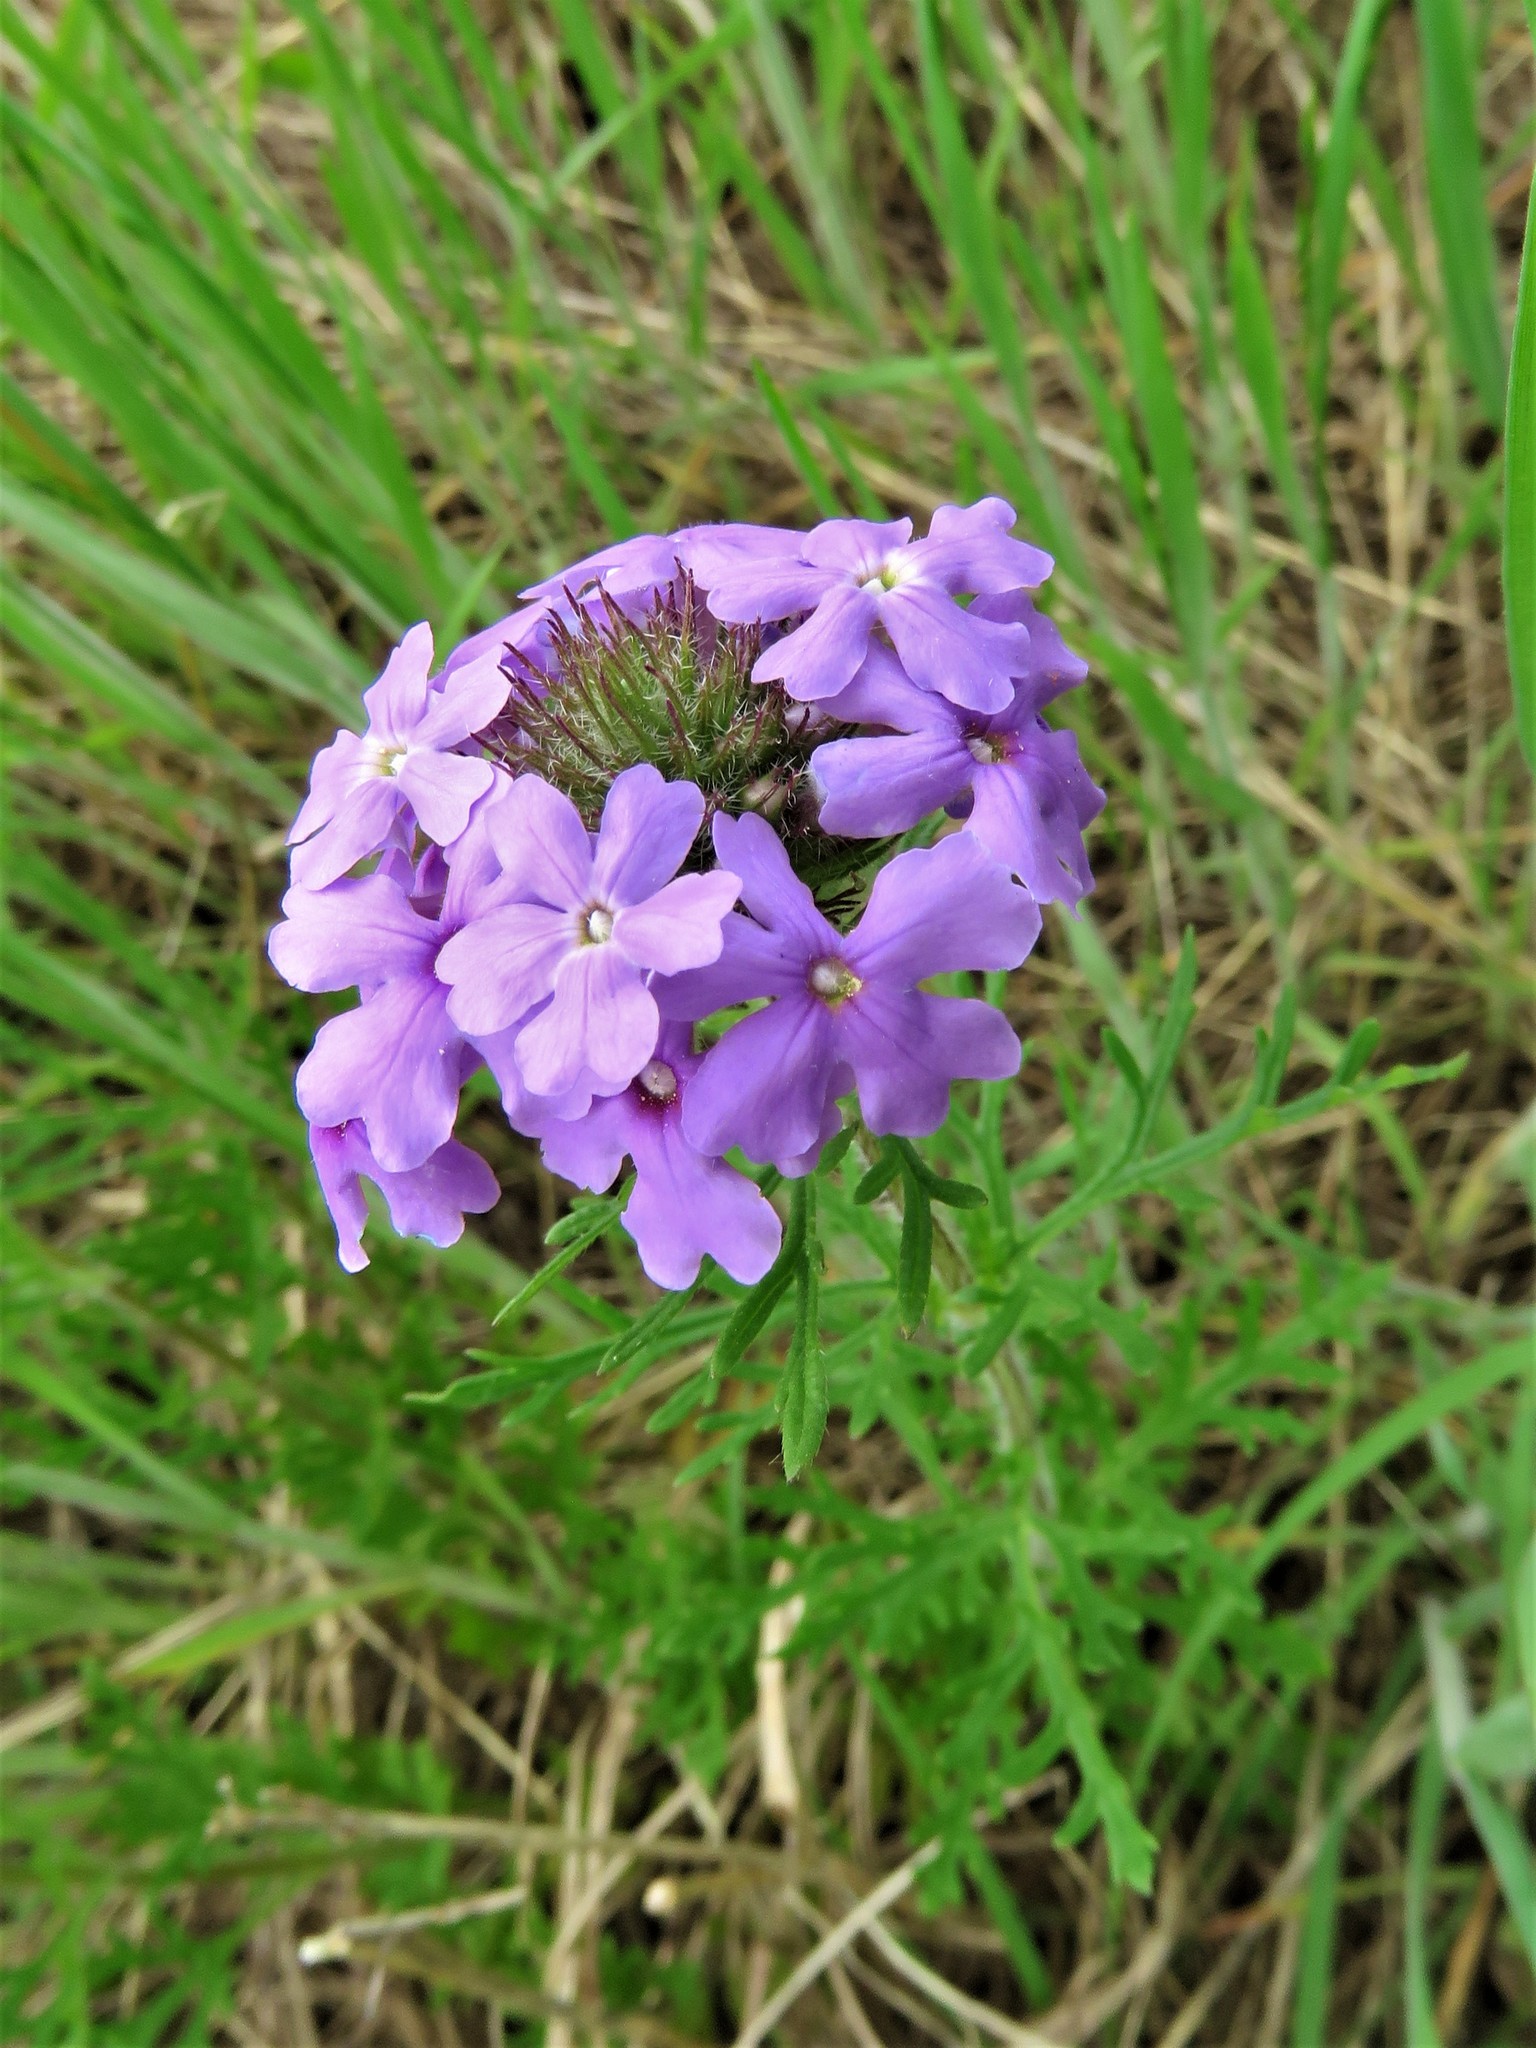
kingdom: Plantae
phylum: Tracheophyta
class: Magnoliopsida
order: Lamiales
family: Verbenaceae
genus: Verbena
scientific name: Verbena bipinnatifida
